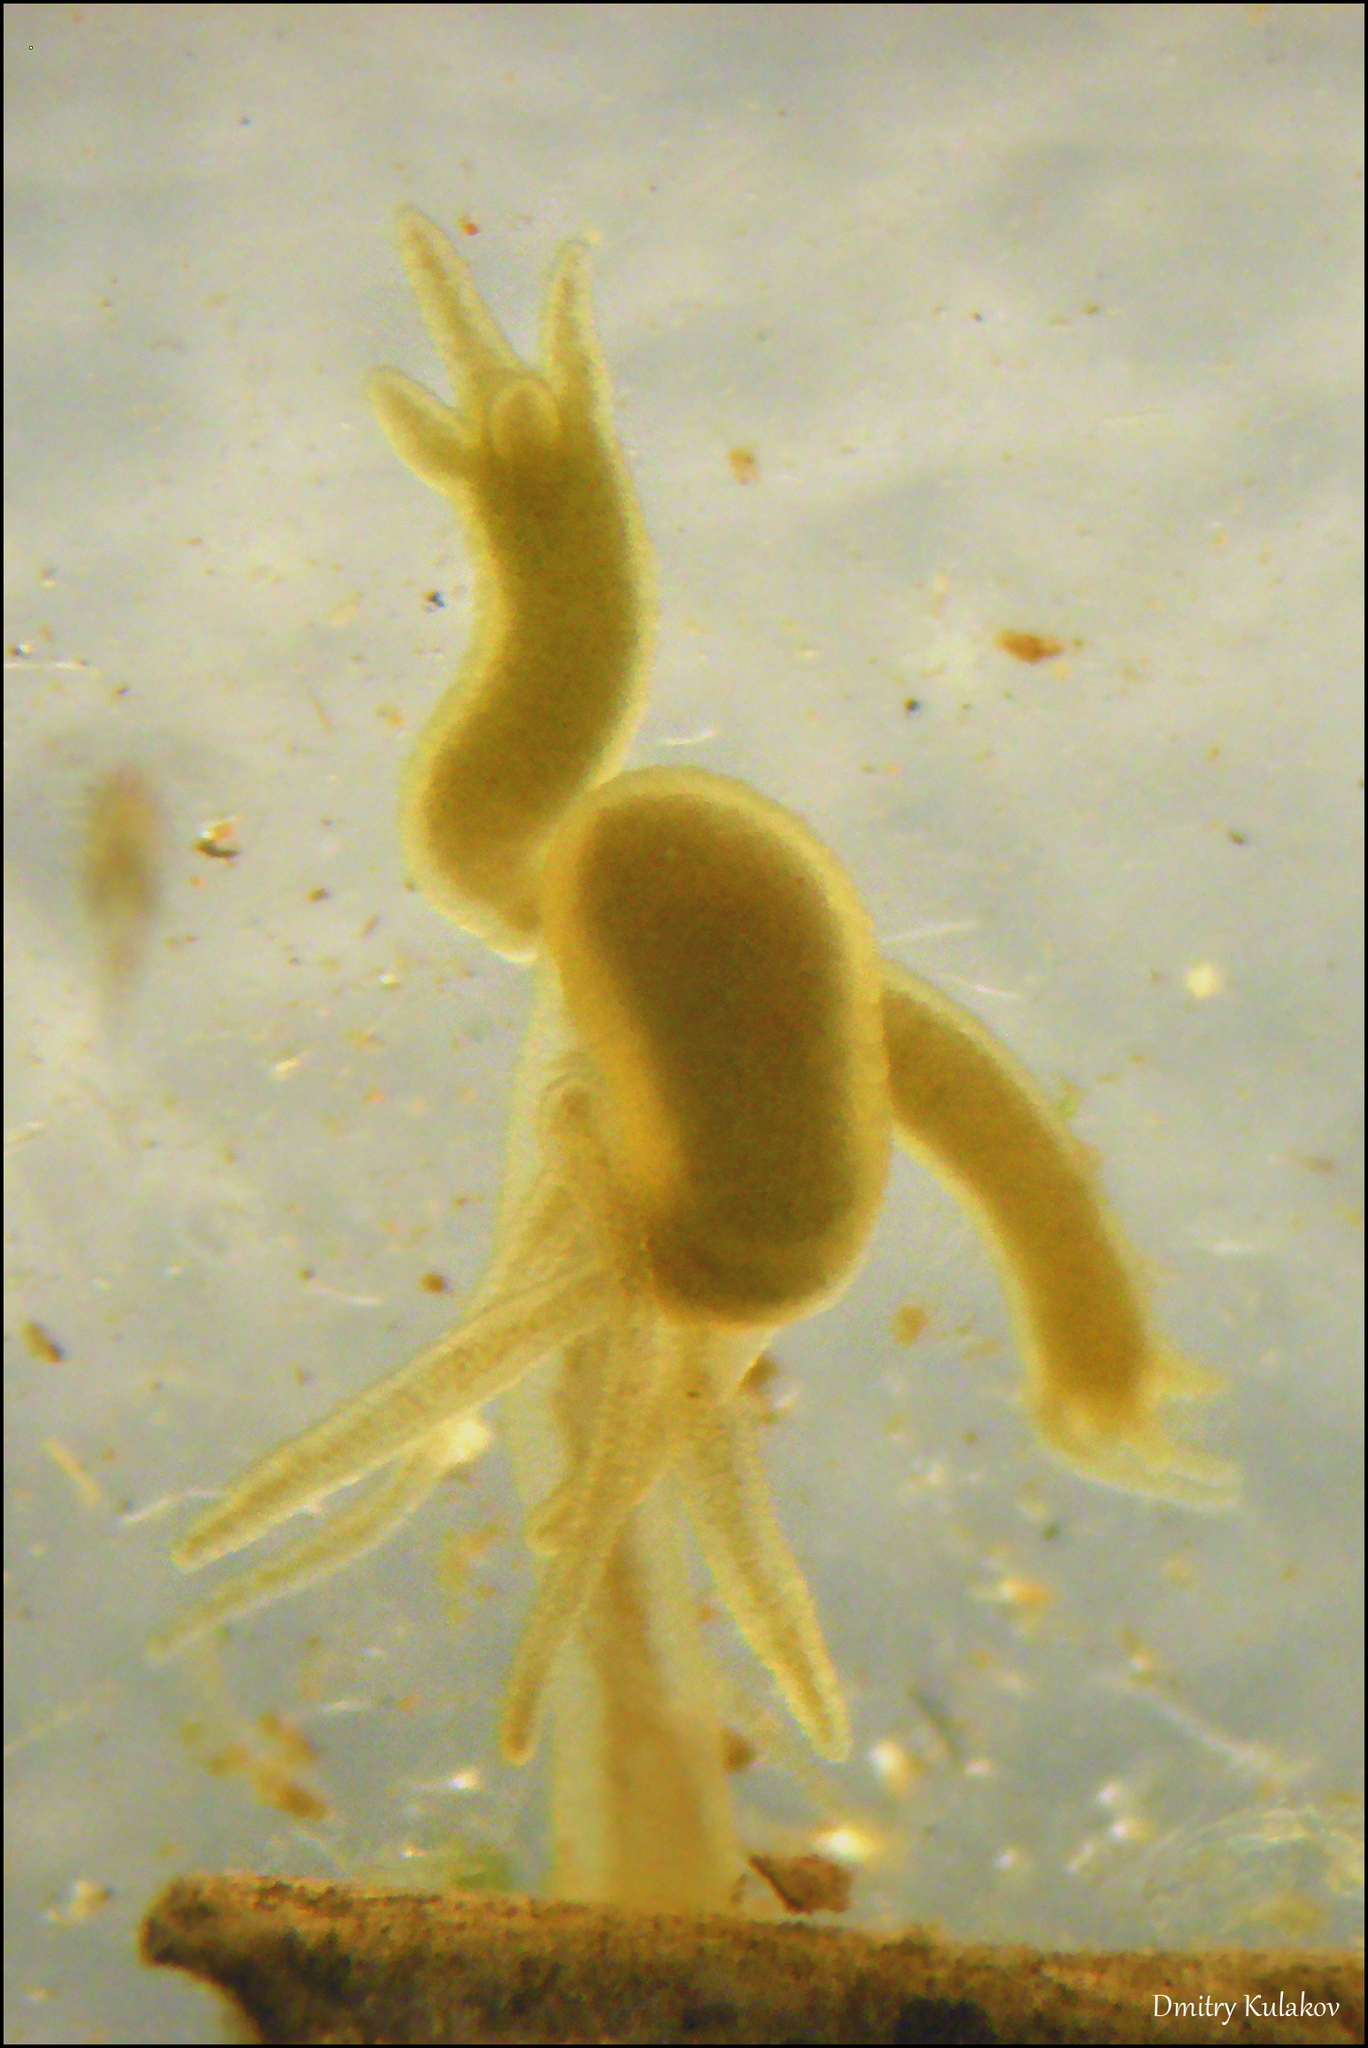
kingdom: Animalia
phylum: Cnidaria
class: Hydrozoa
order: Anthoathecata
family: Hydridae
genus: Hydra
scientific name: Hydra oligactis
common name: Brown hydra
